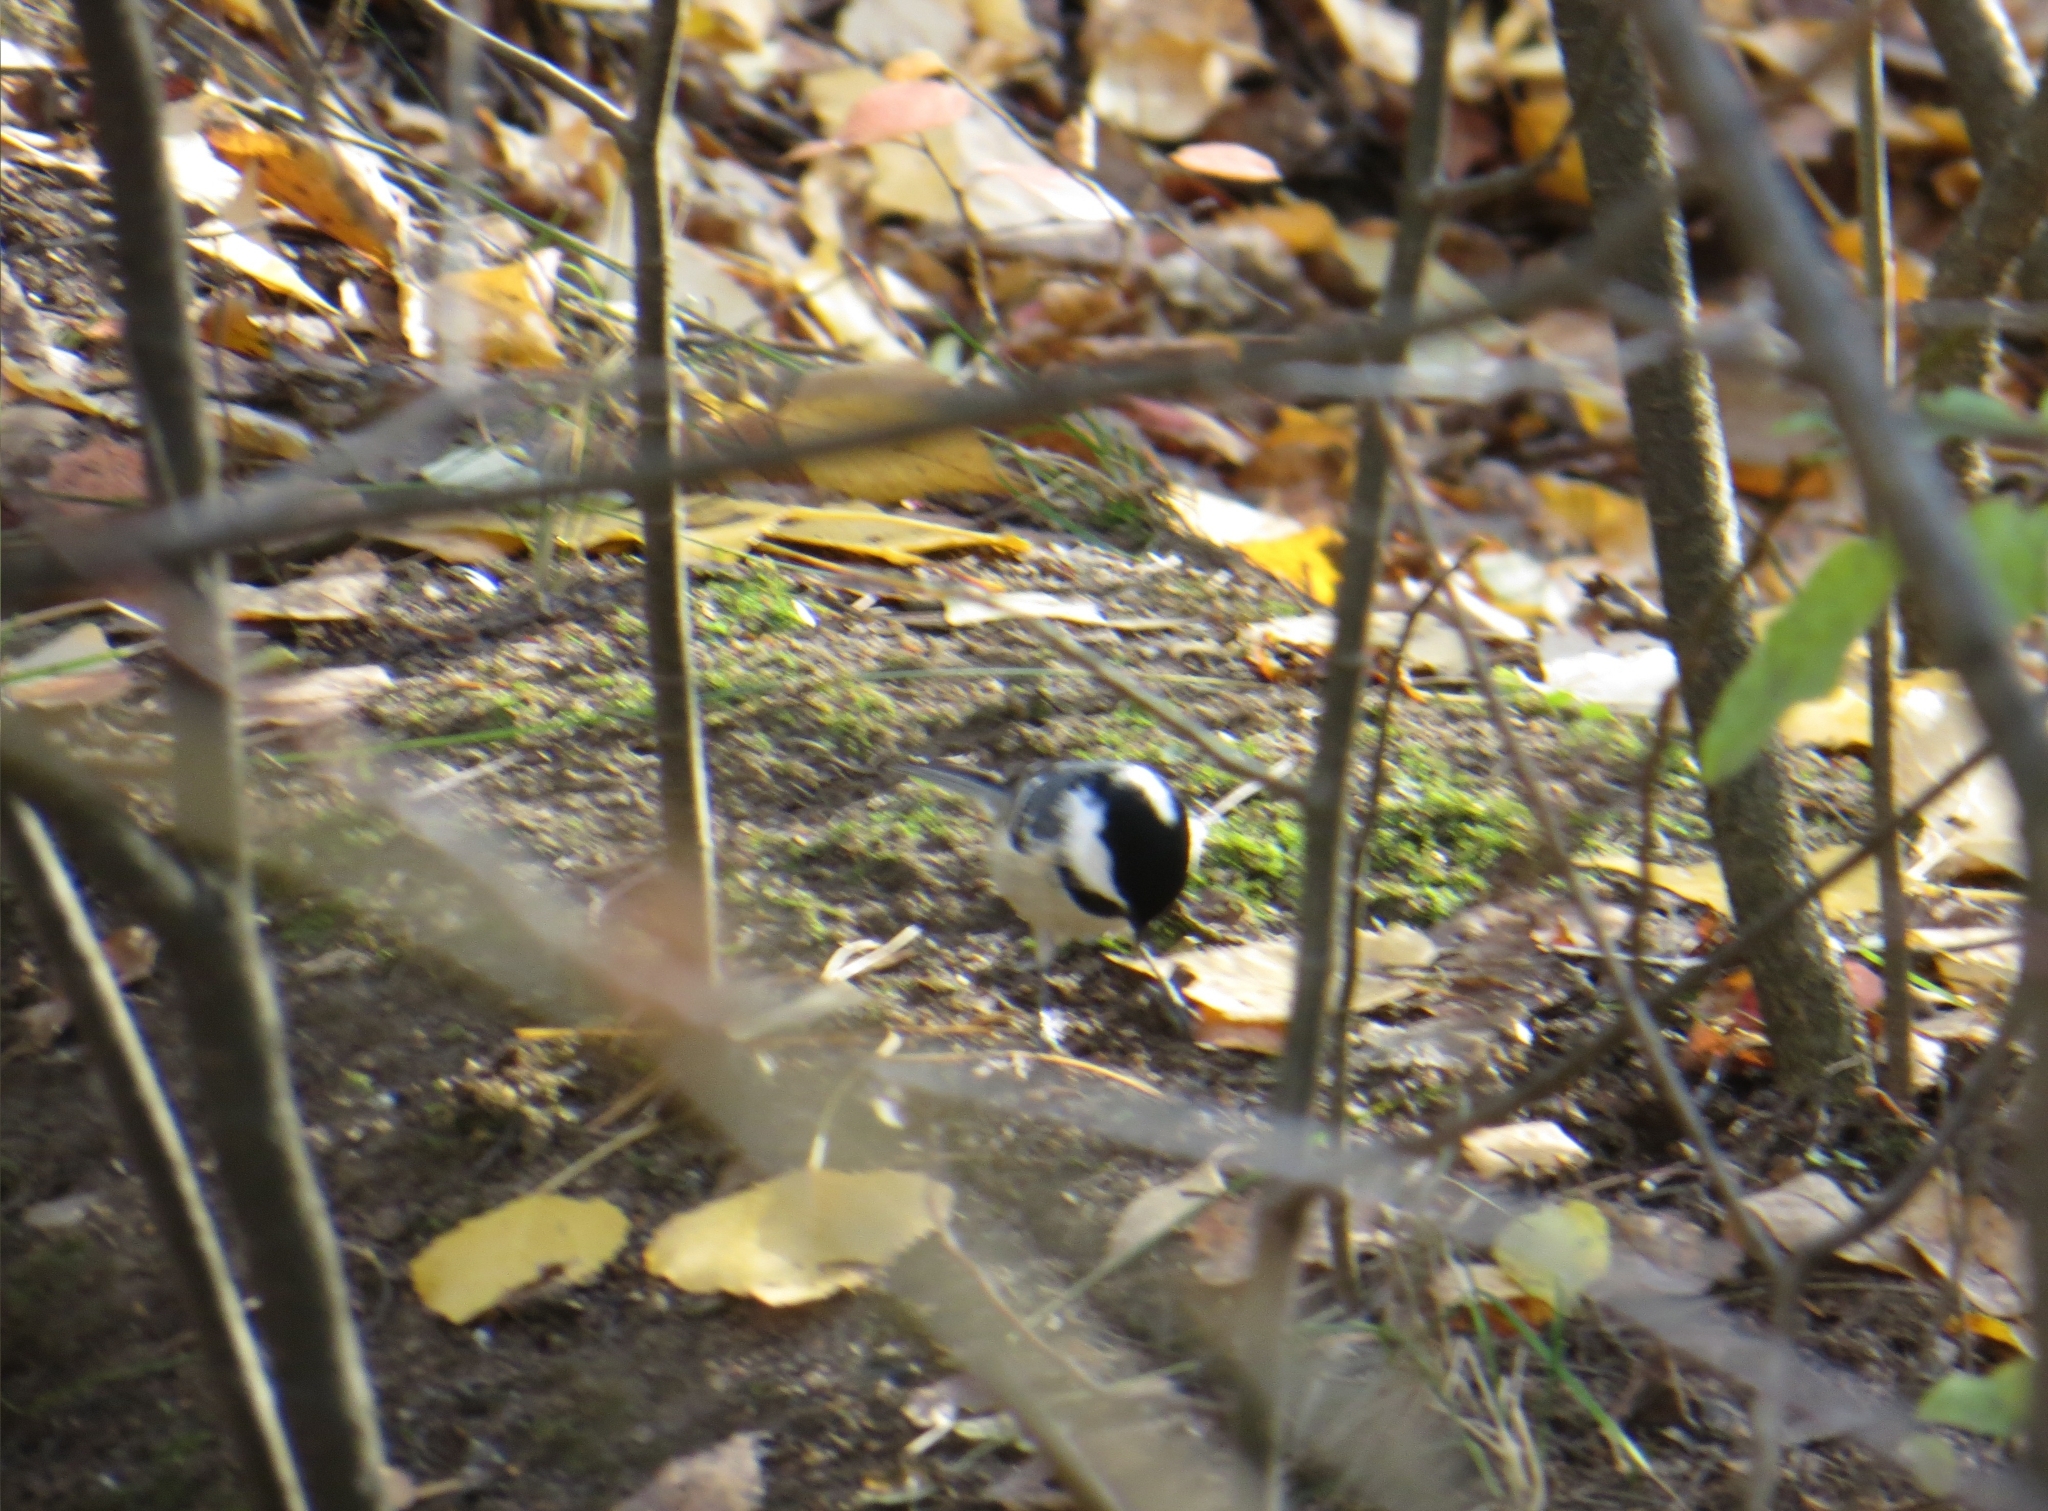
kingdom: Animalia
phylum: Chordata
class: Aves
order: Passeriformes
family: Paridae
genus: Periparus
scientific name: Periparus ater
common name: Coal tit
